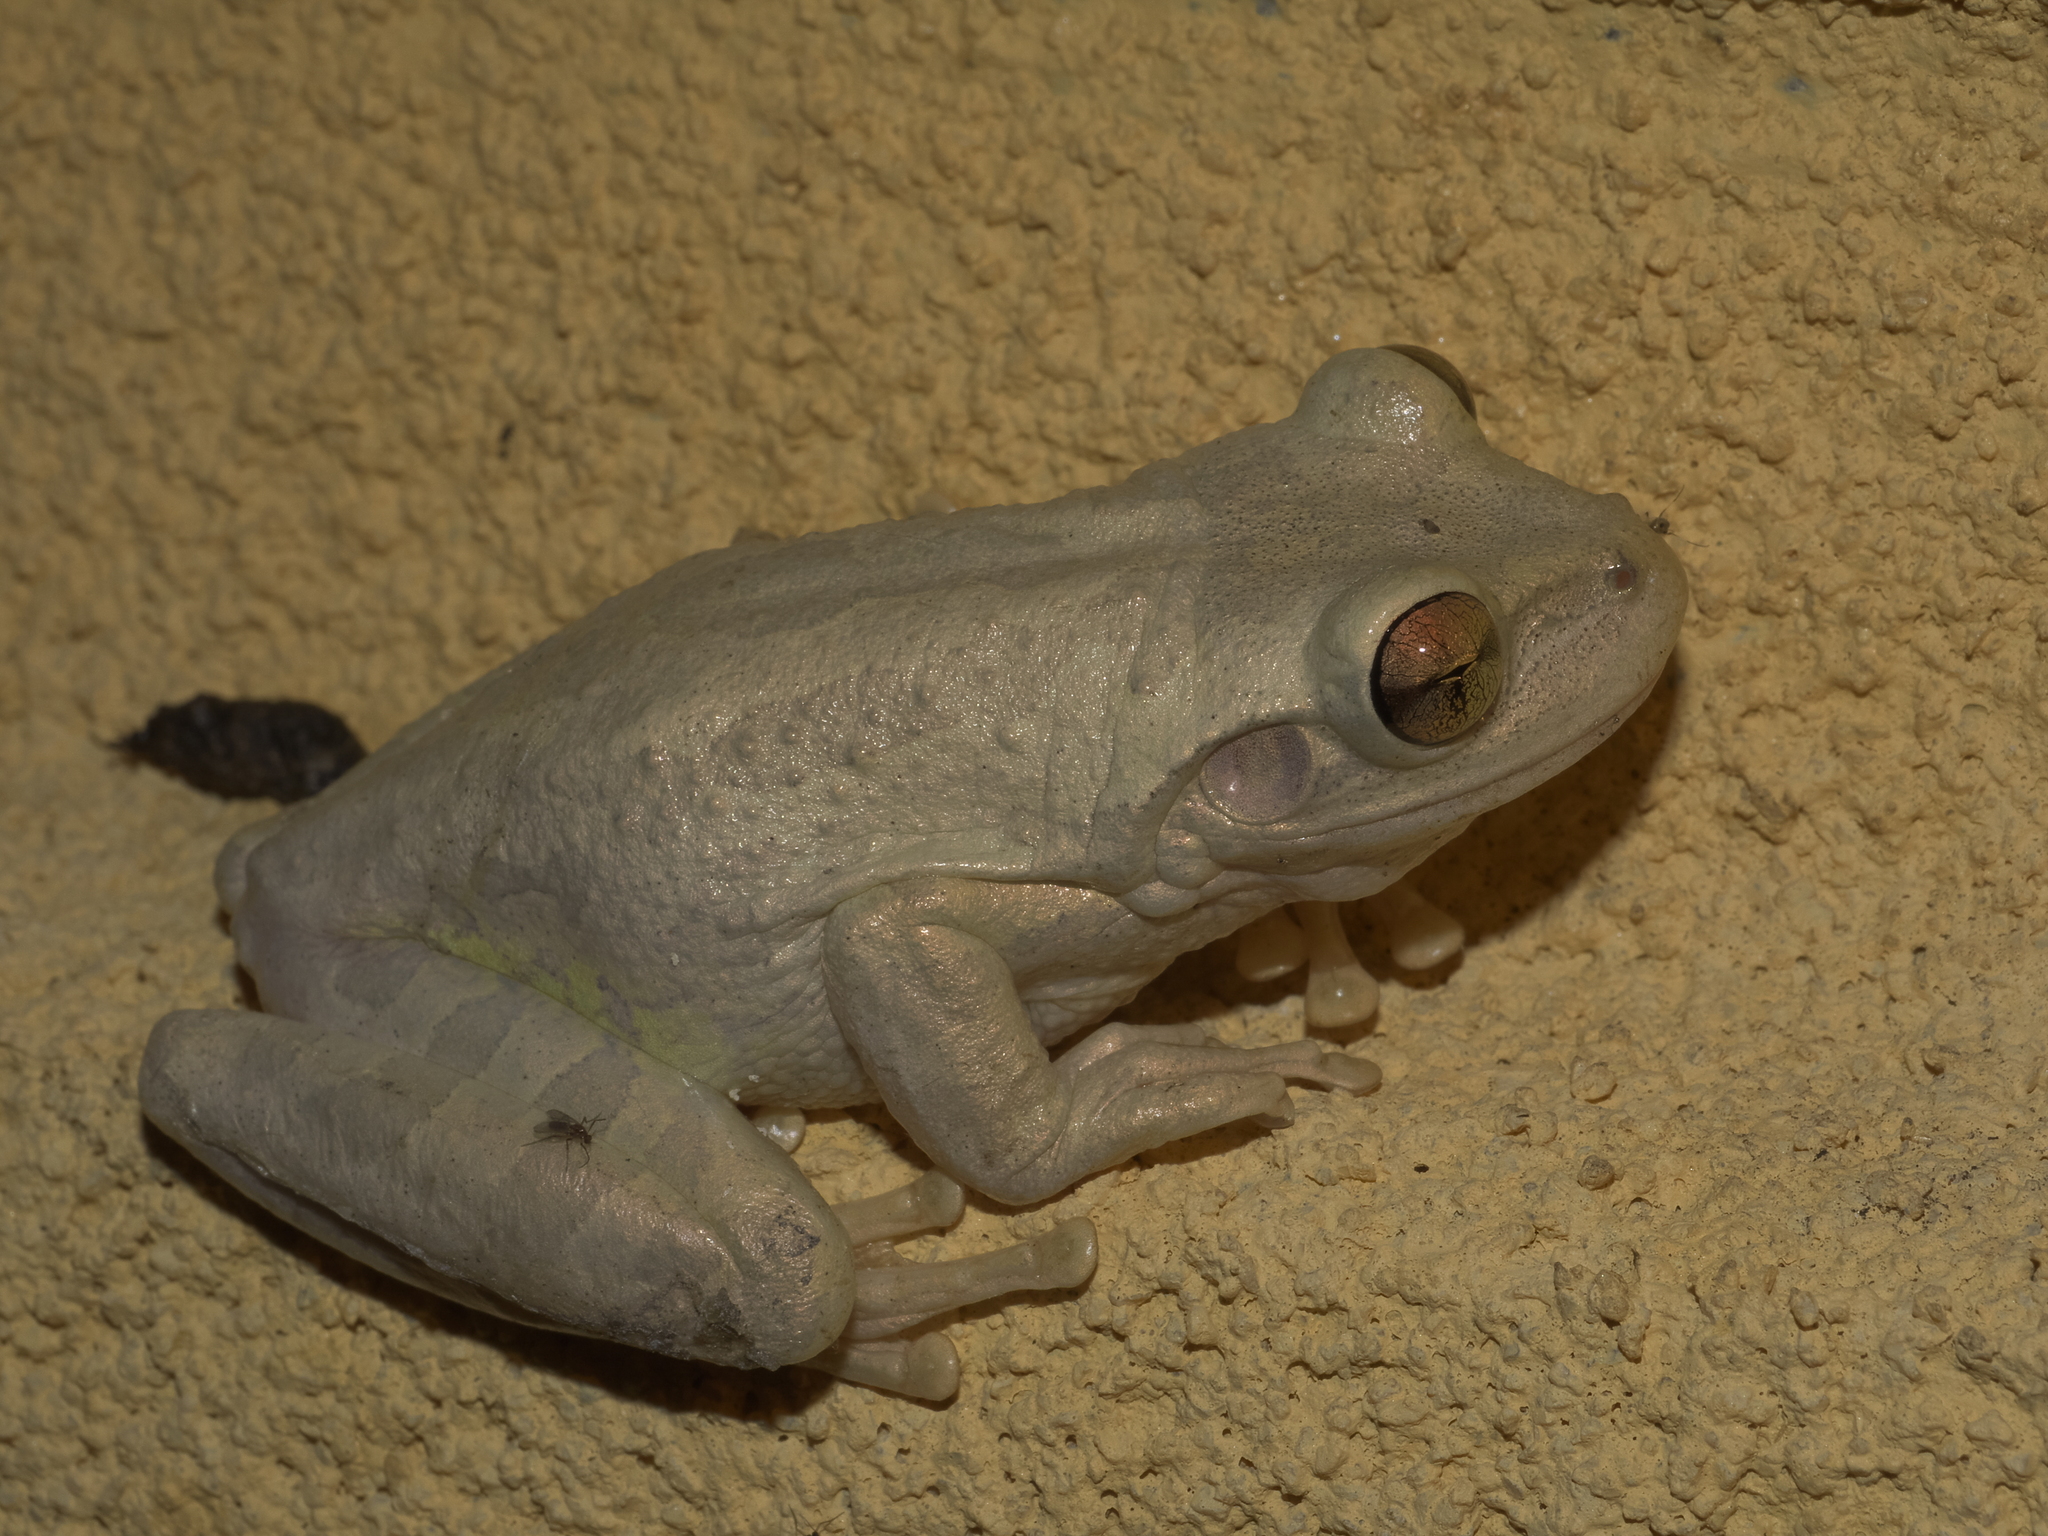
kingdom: Animalia
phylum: Chordata
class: Amphibia
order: Anura
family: Hylidae
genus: Osteopilus
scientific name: Osteopilus septentrionalis
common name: Cuban treefrog
